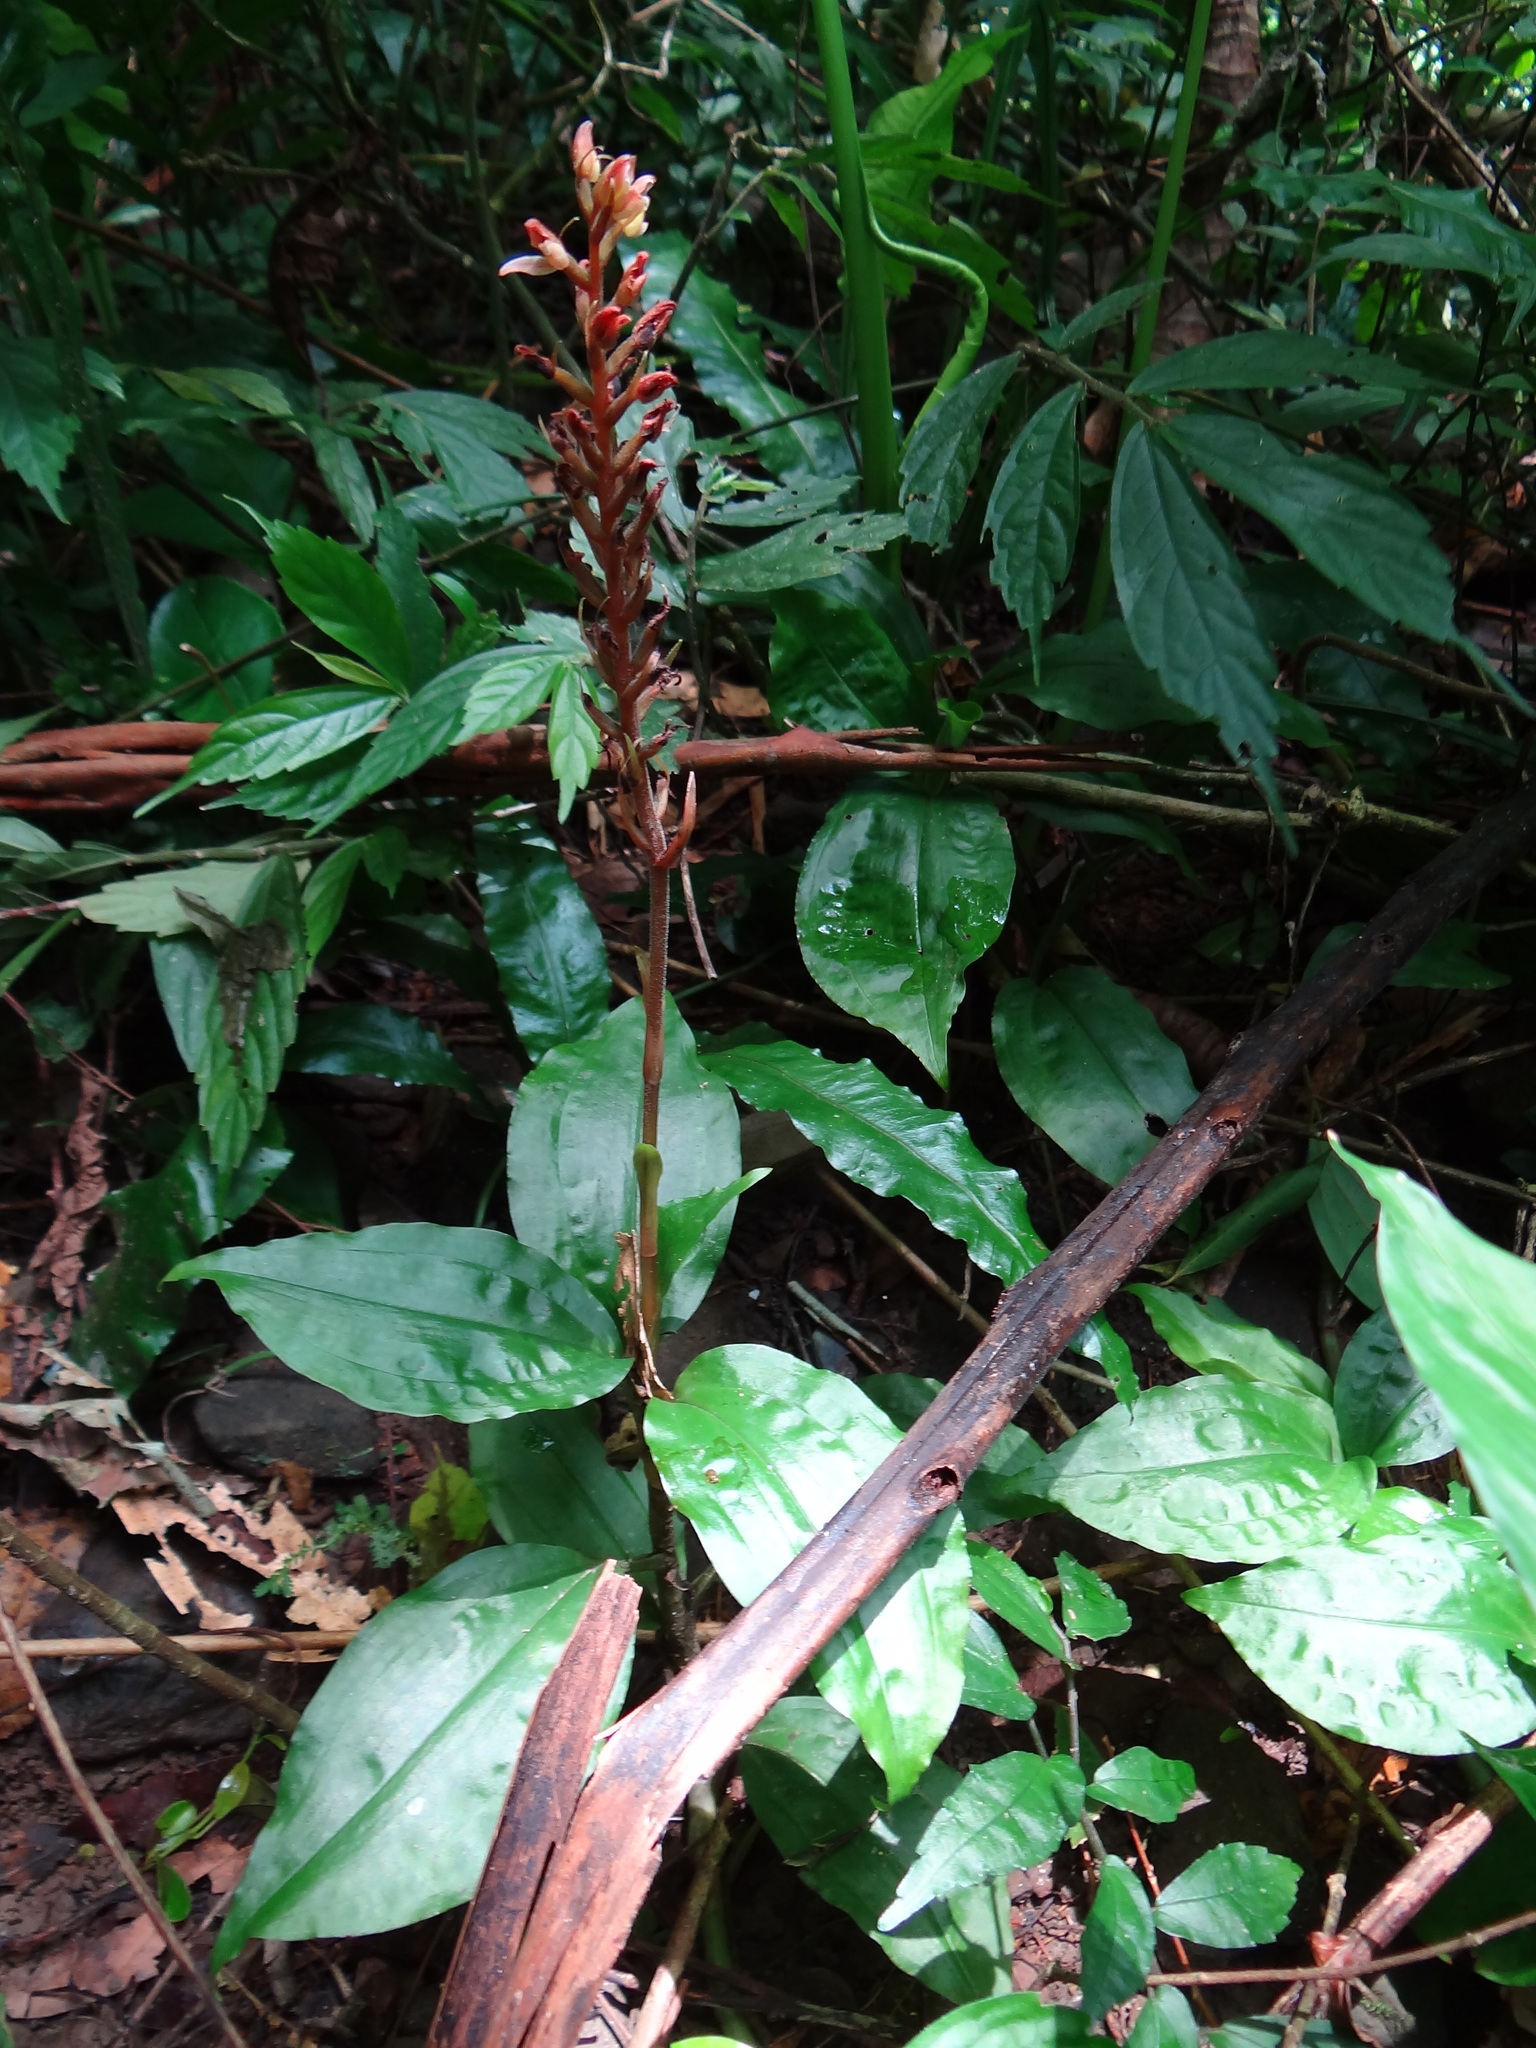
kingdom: Plantae
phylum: Tracheophyta
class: Liliopsida
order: Asparagales
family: Orchidaceae
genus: Goodyera
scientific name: Goodyera rubicunda
